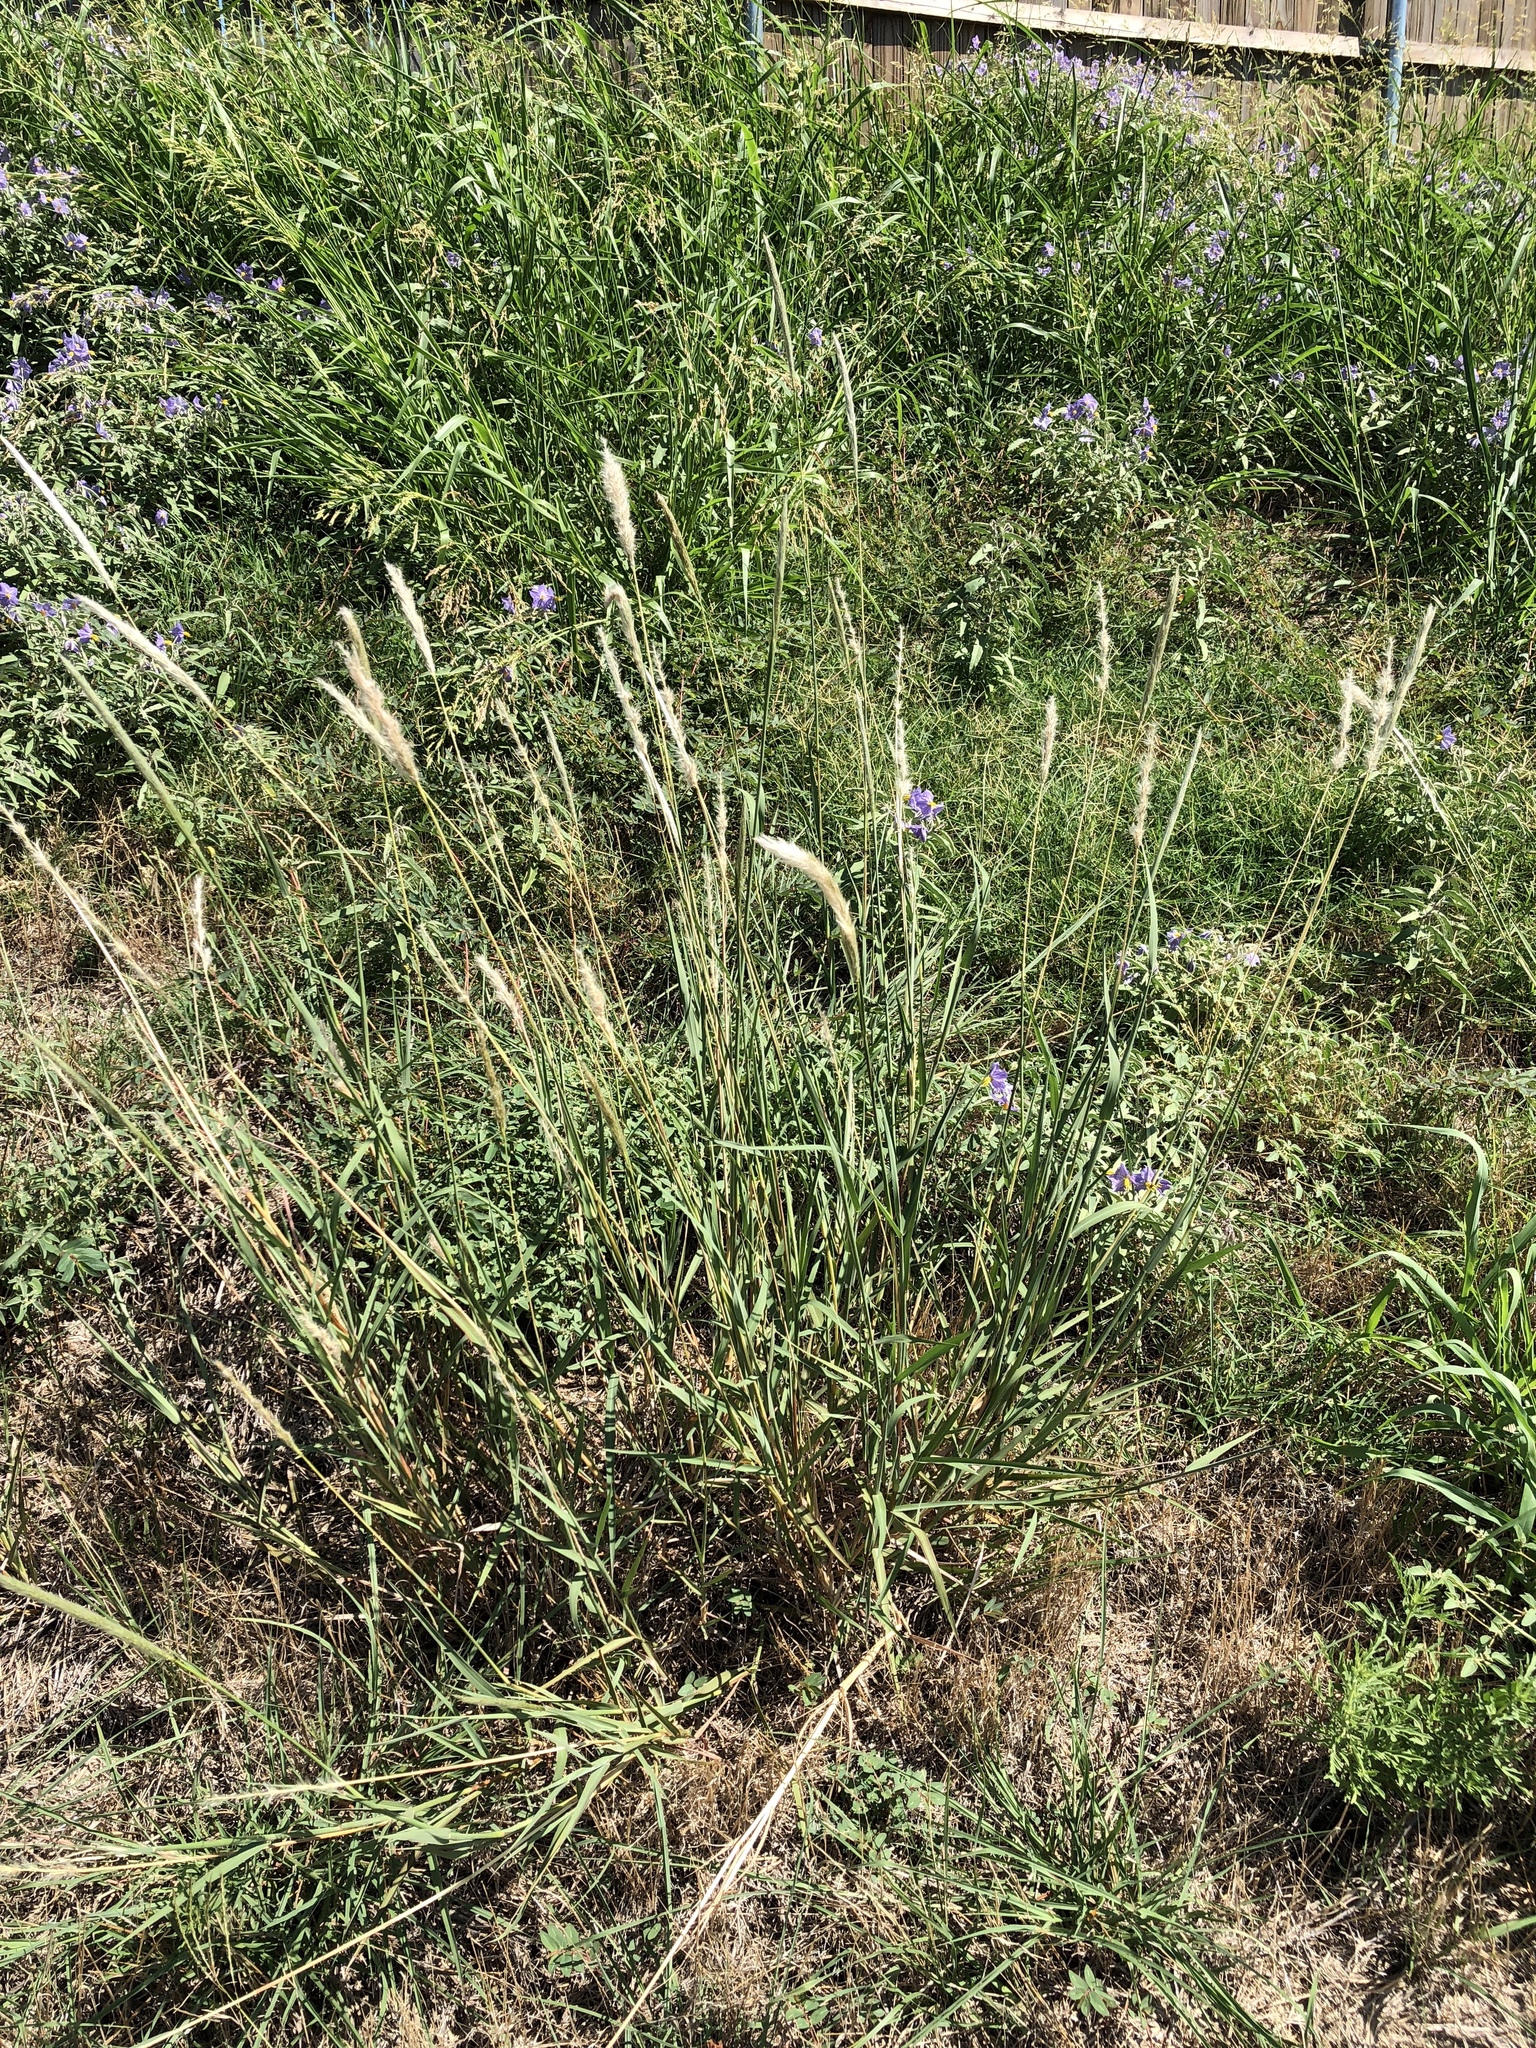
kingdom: Plantae
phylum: Tracheophyta
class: Liliopsida
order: Poales
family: Poaceae
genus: Bothriochloa
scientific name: Bothriochloa torreyana
